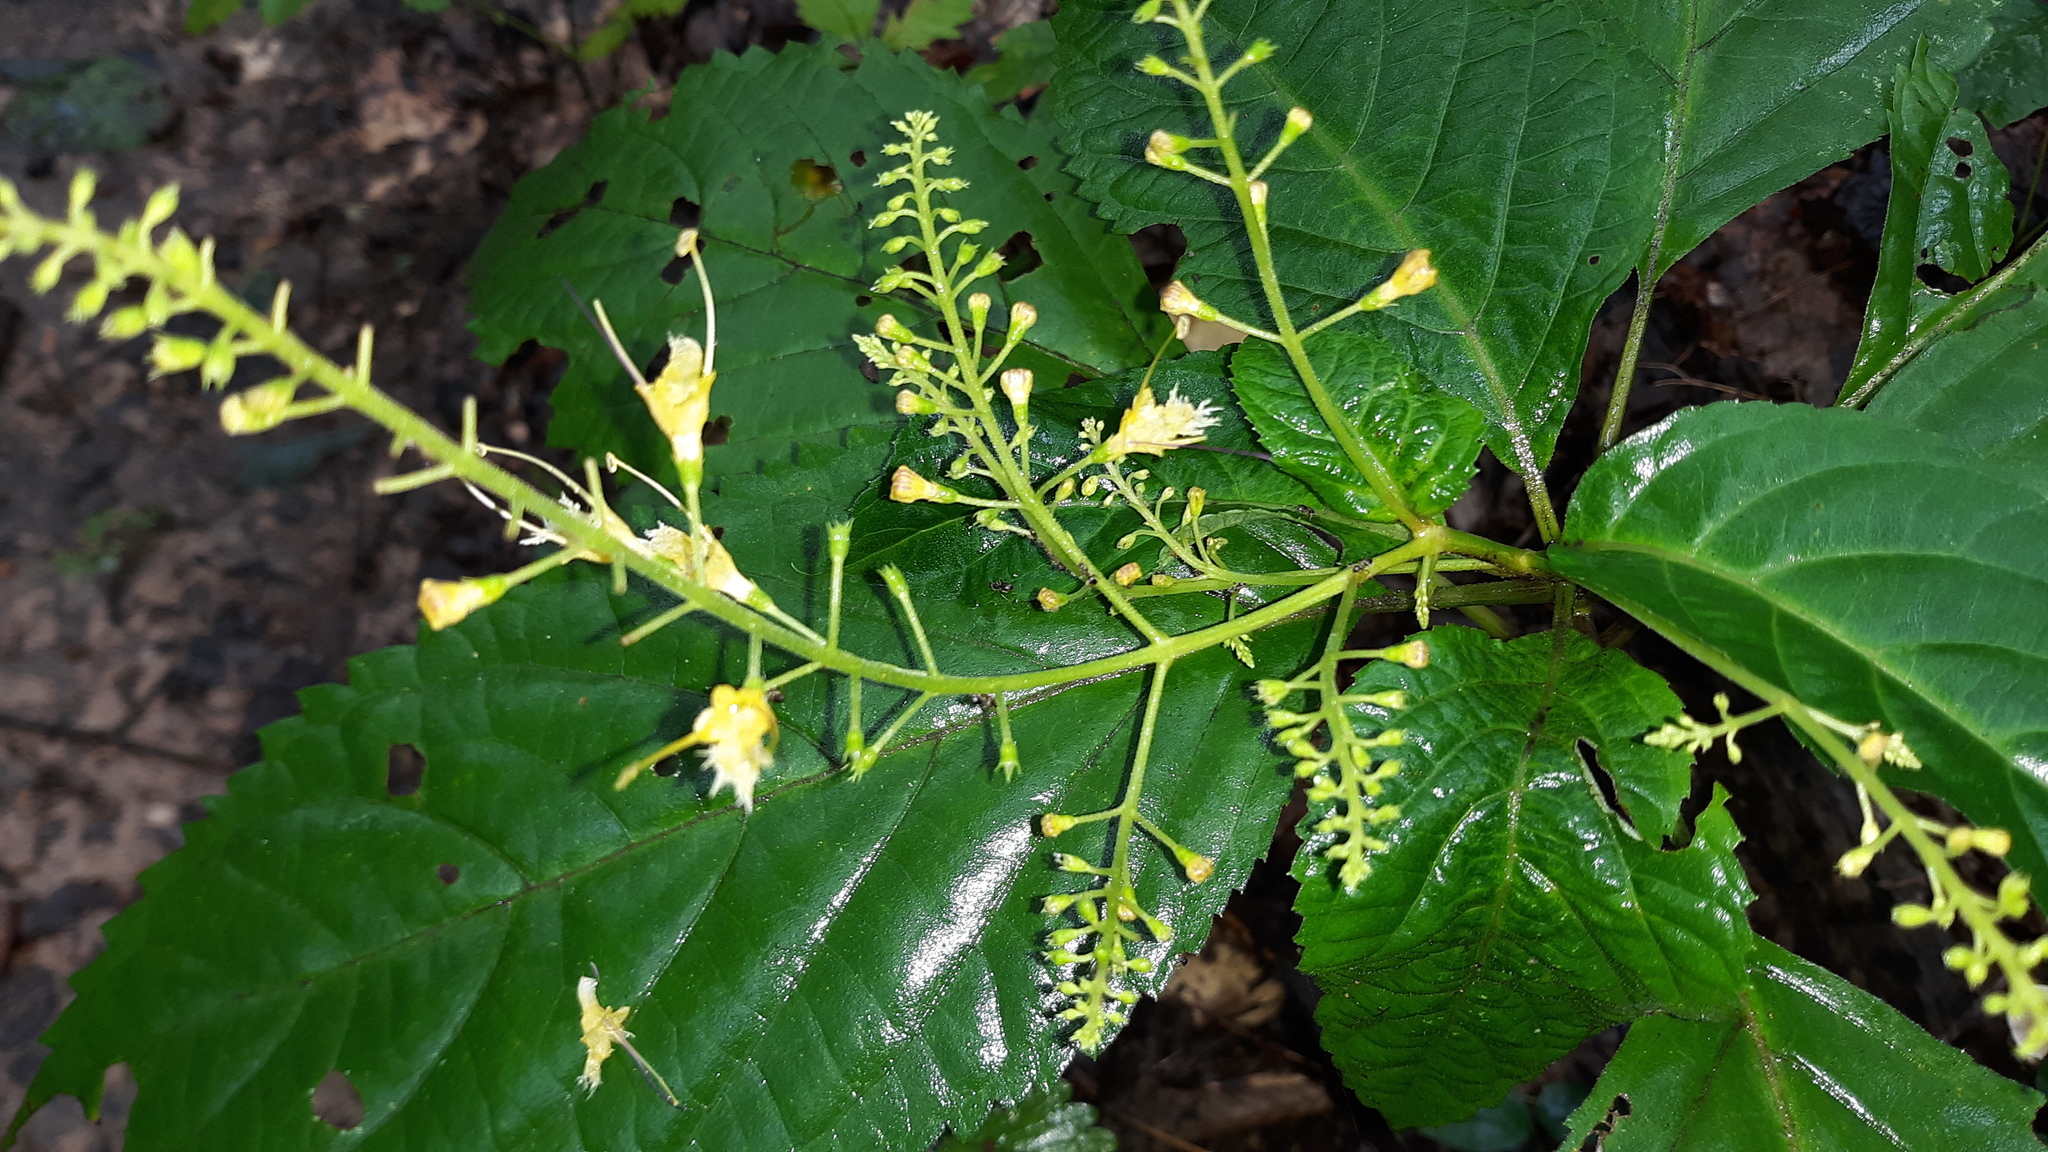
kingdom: Plantae
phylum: Tracheophyta
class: Magnoliopsida
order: Lamiales
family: Lamiaceae
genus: Collinsonia
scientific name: Collinsonia canadensis
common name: Northern horsebalm
